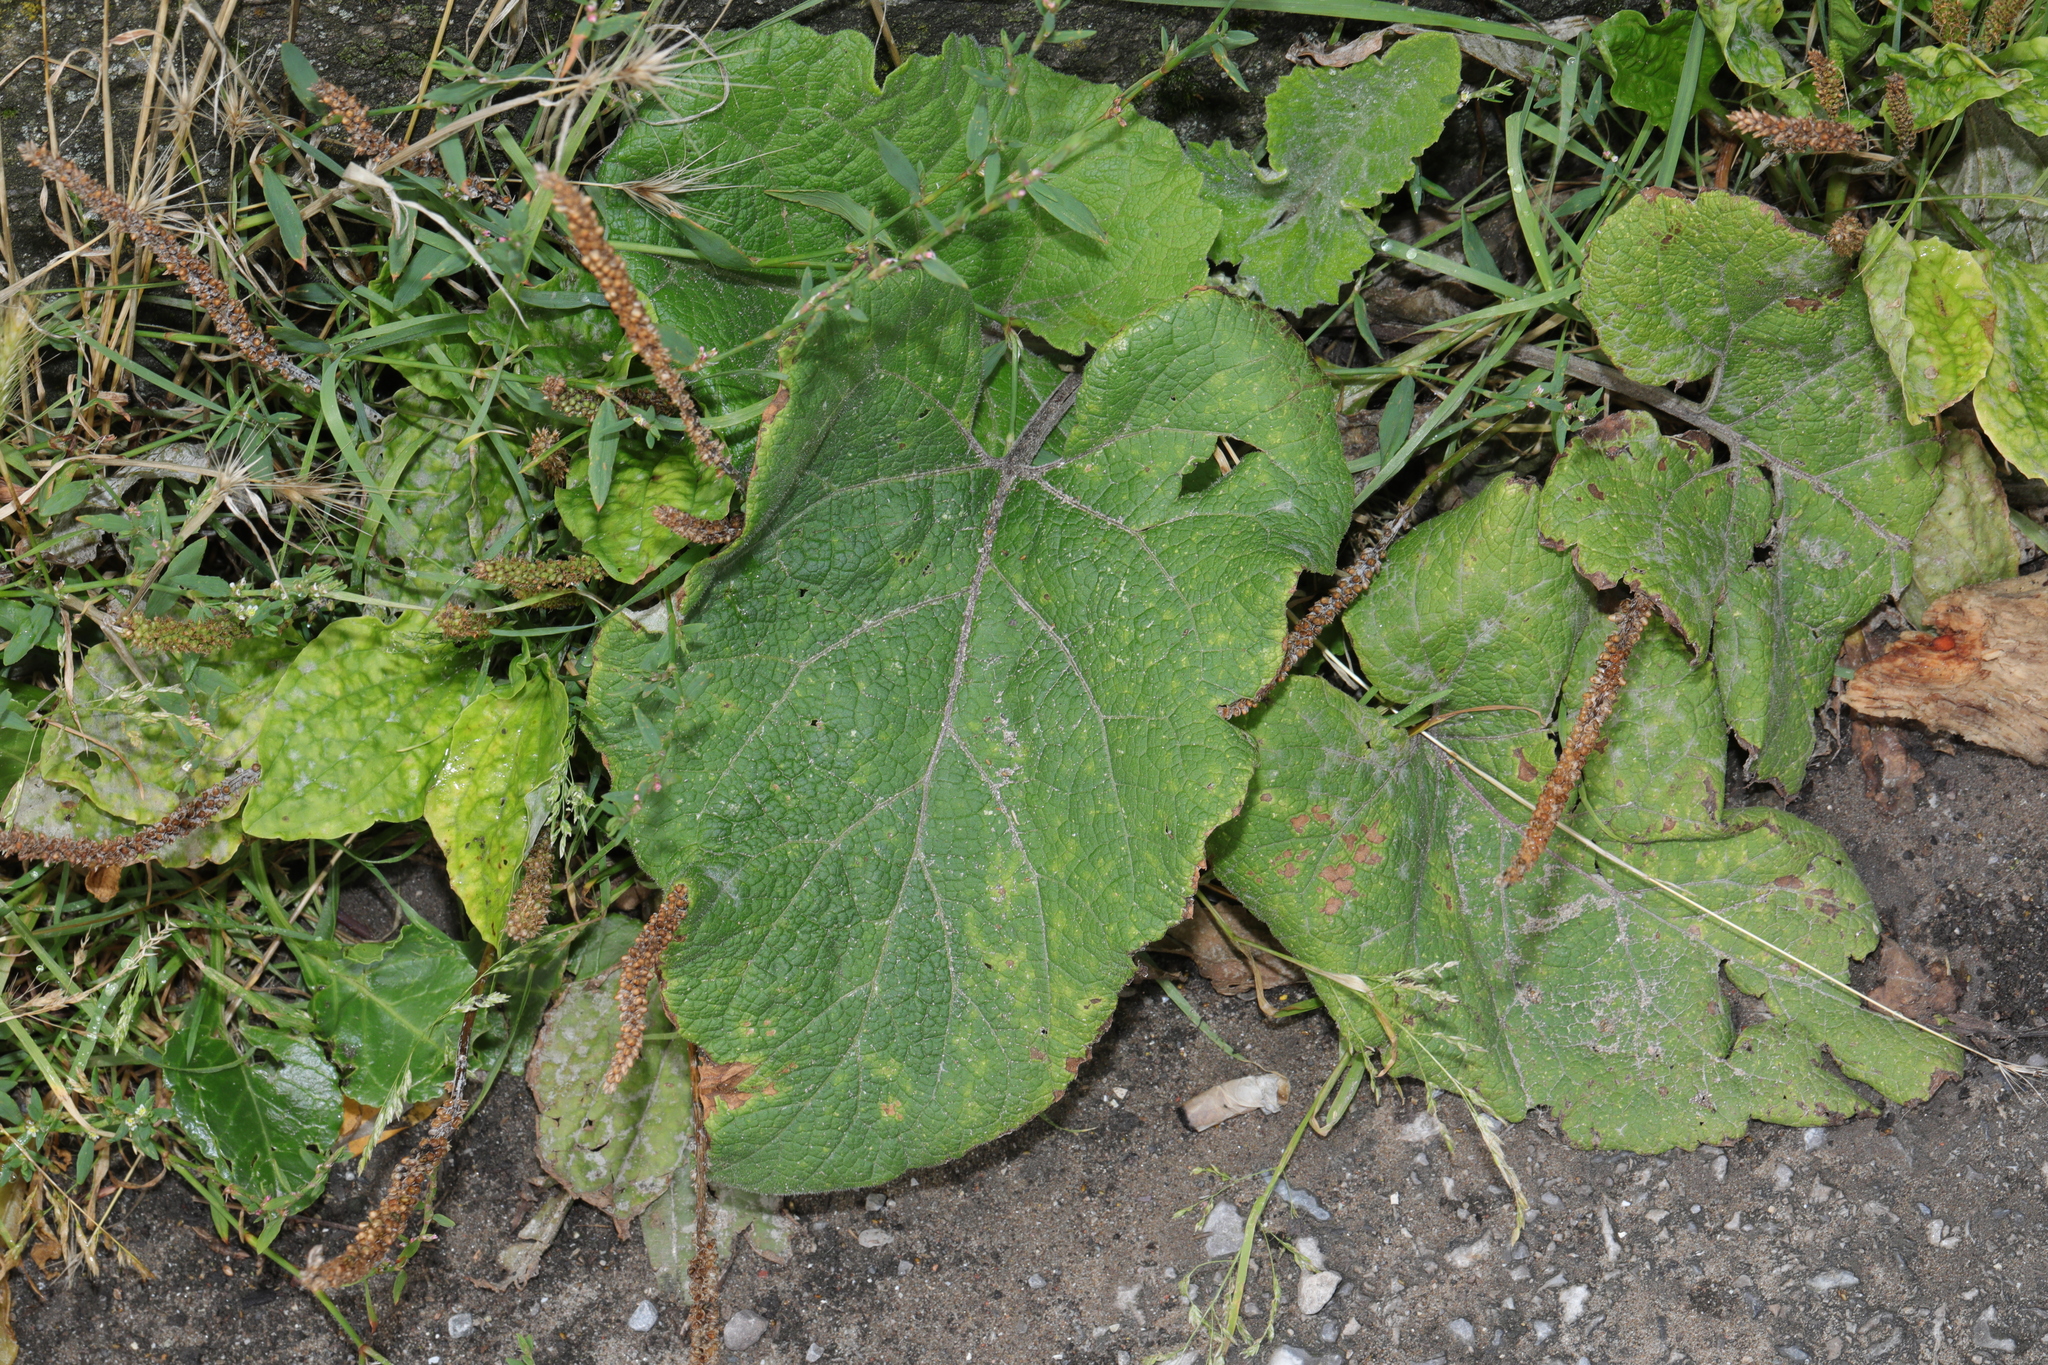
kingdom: Plantae
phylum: Tracheophyta
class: Magnoliopsida
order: Asterales
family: Asteraceae
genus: Tussilago
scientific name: Tussilago farfara
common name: Coltsfoot
